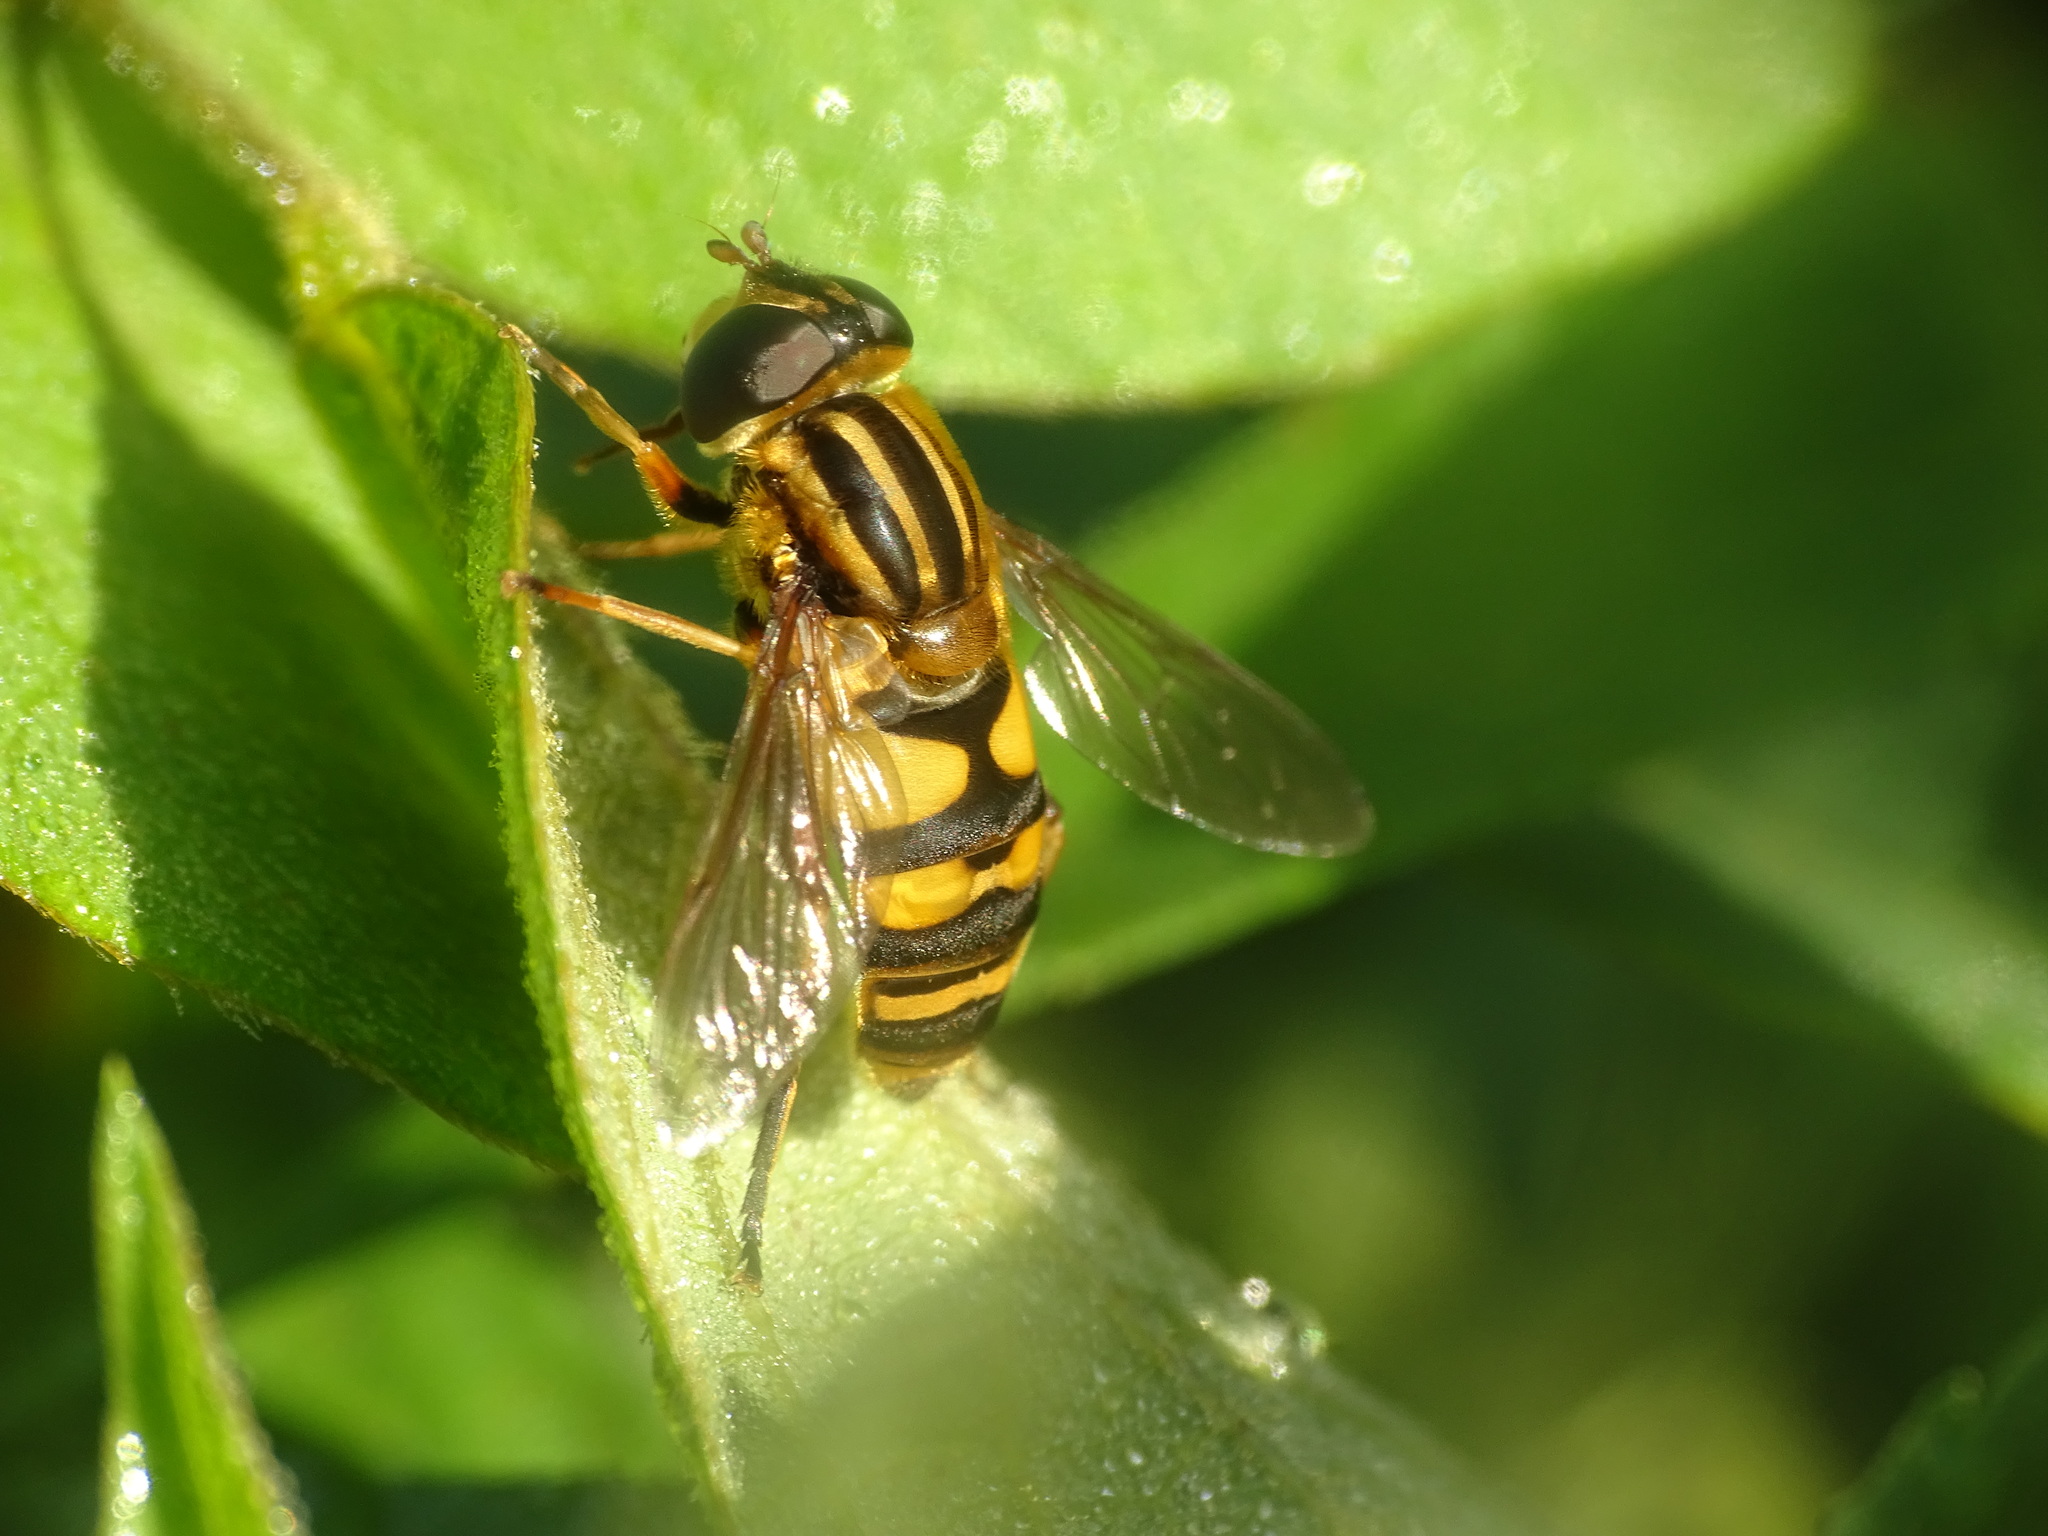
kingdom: Animalia
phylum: Arthropoda
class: Insecta
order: Diptera
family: Syrphidae
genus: Helophilus
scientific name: Helophilus fasciatus
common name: Narrow-headed marsh fly
